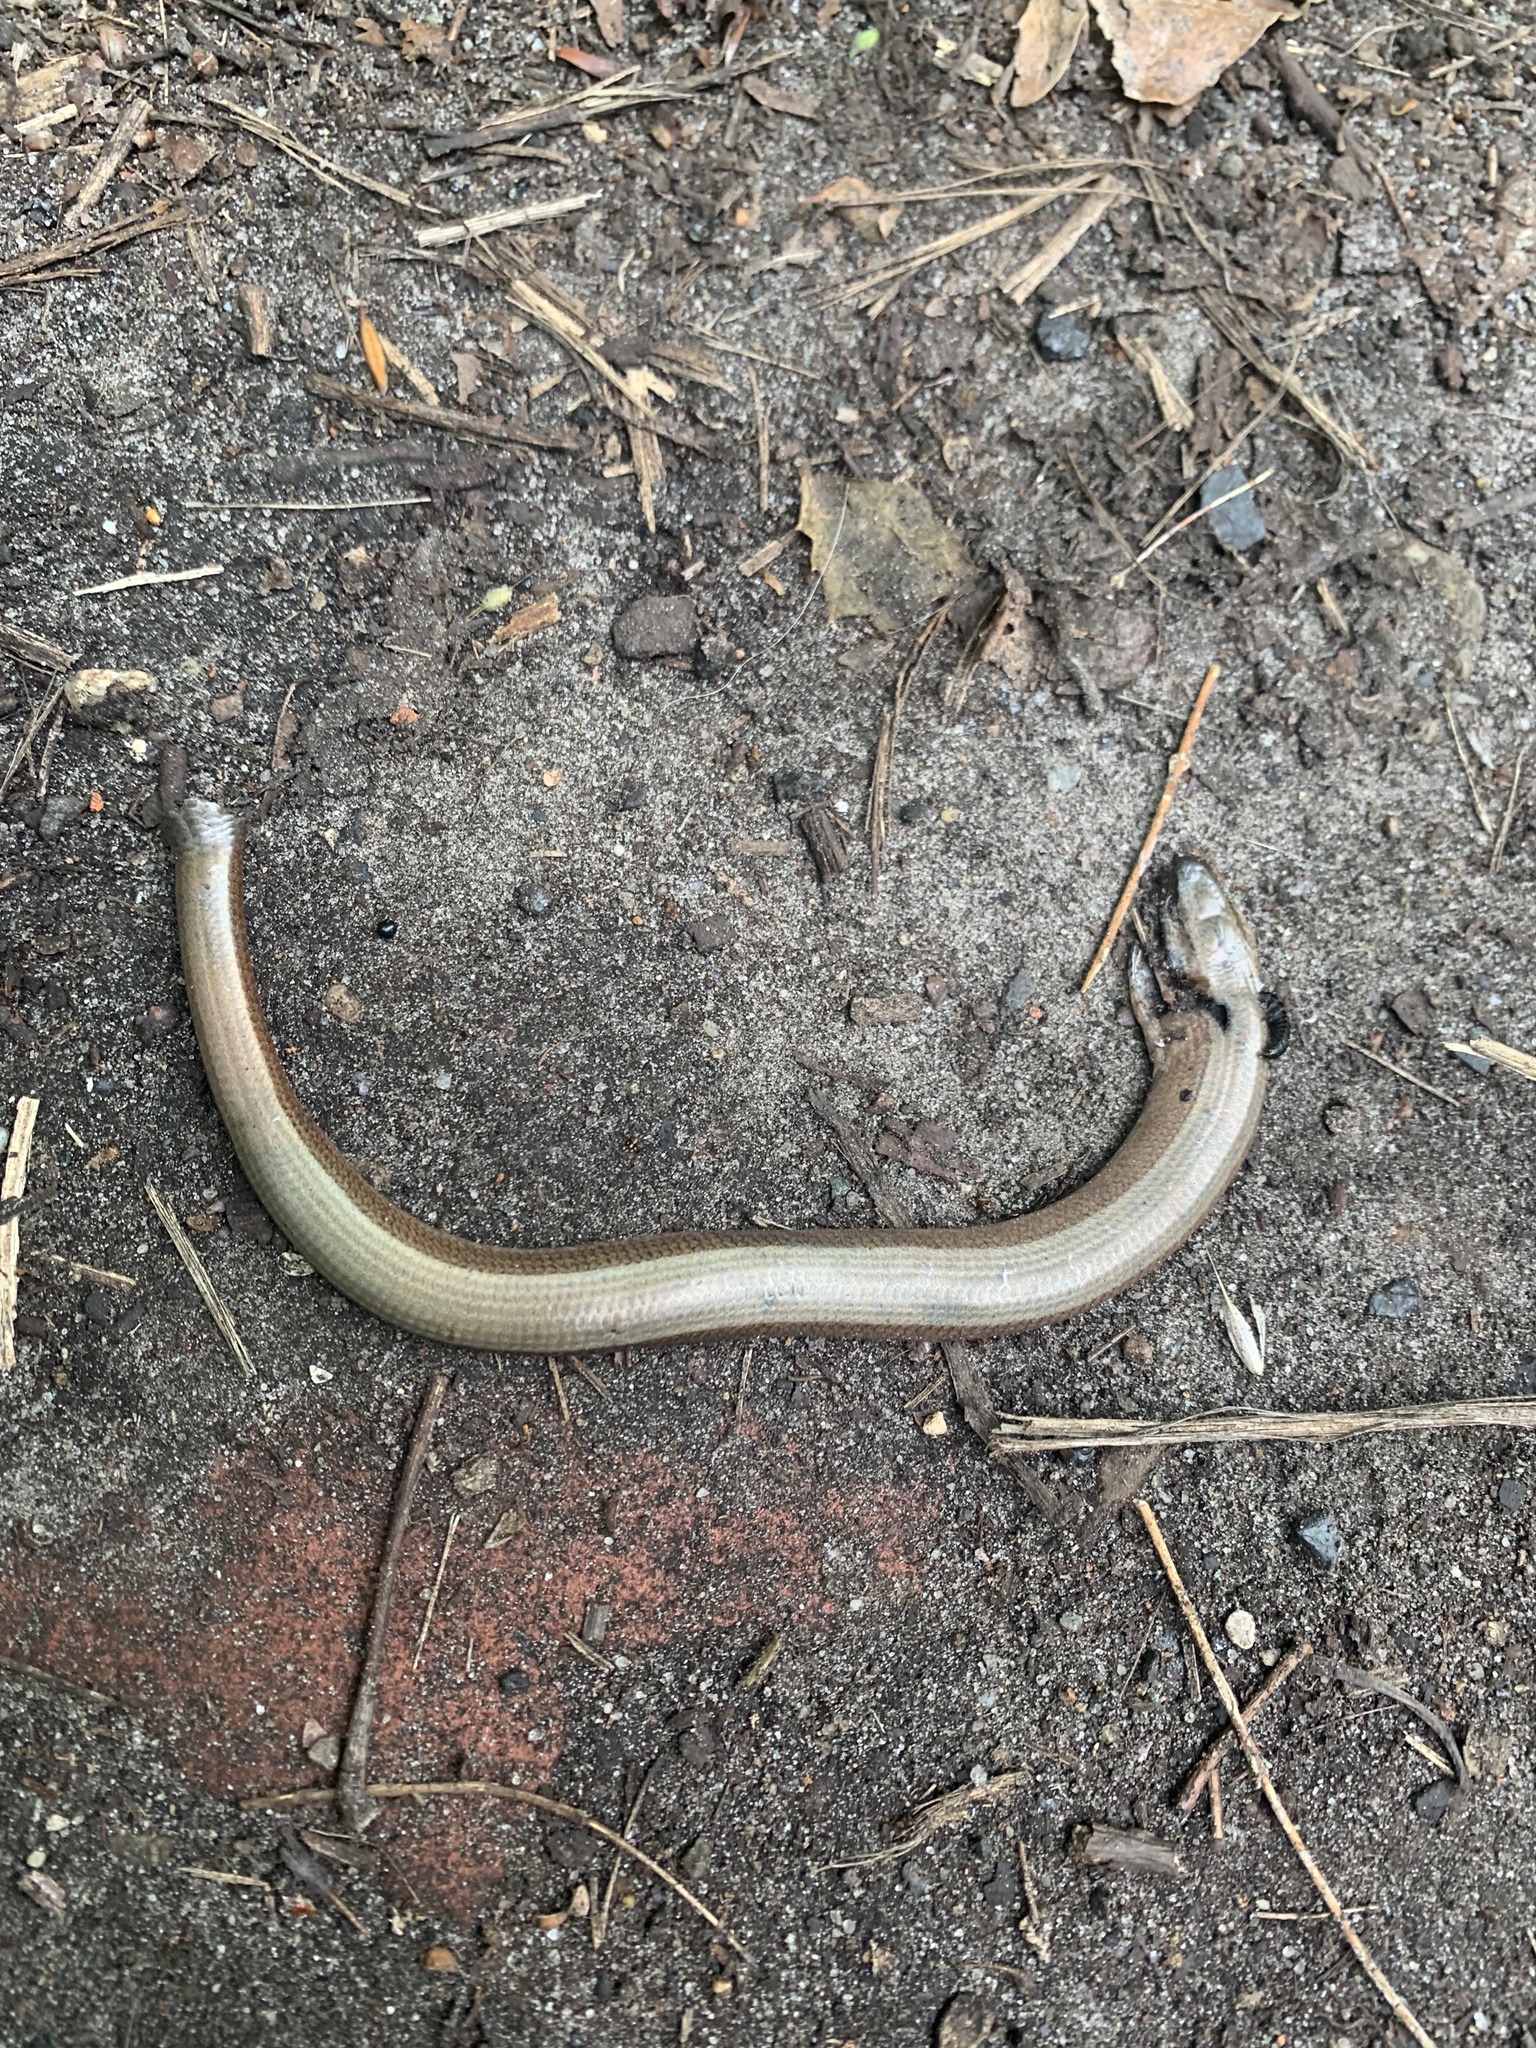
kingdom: Animalia
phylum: Chordata
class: Squamata
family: Anguidae
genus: Anguis
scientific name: Anguis fragilis
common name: Slow worm
